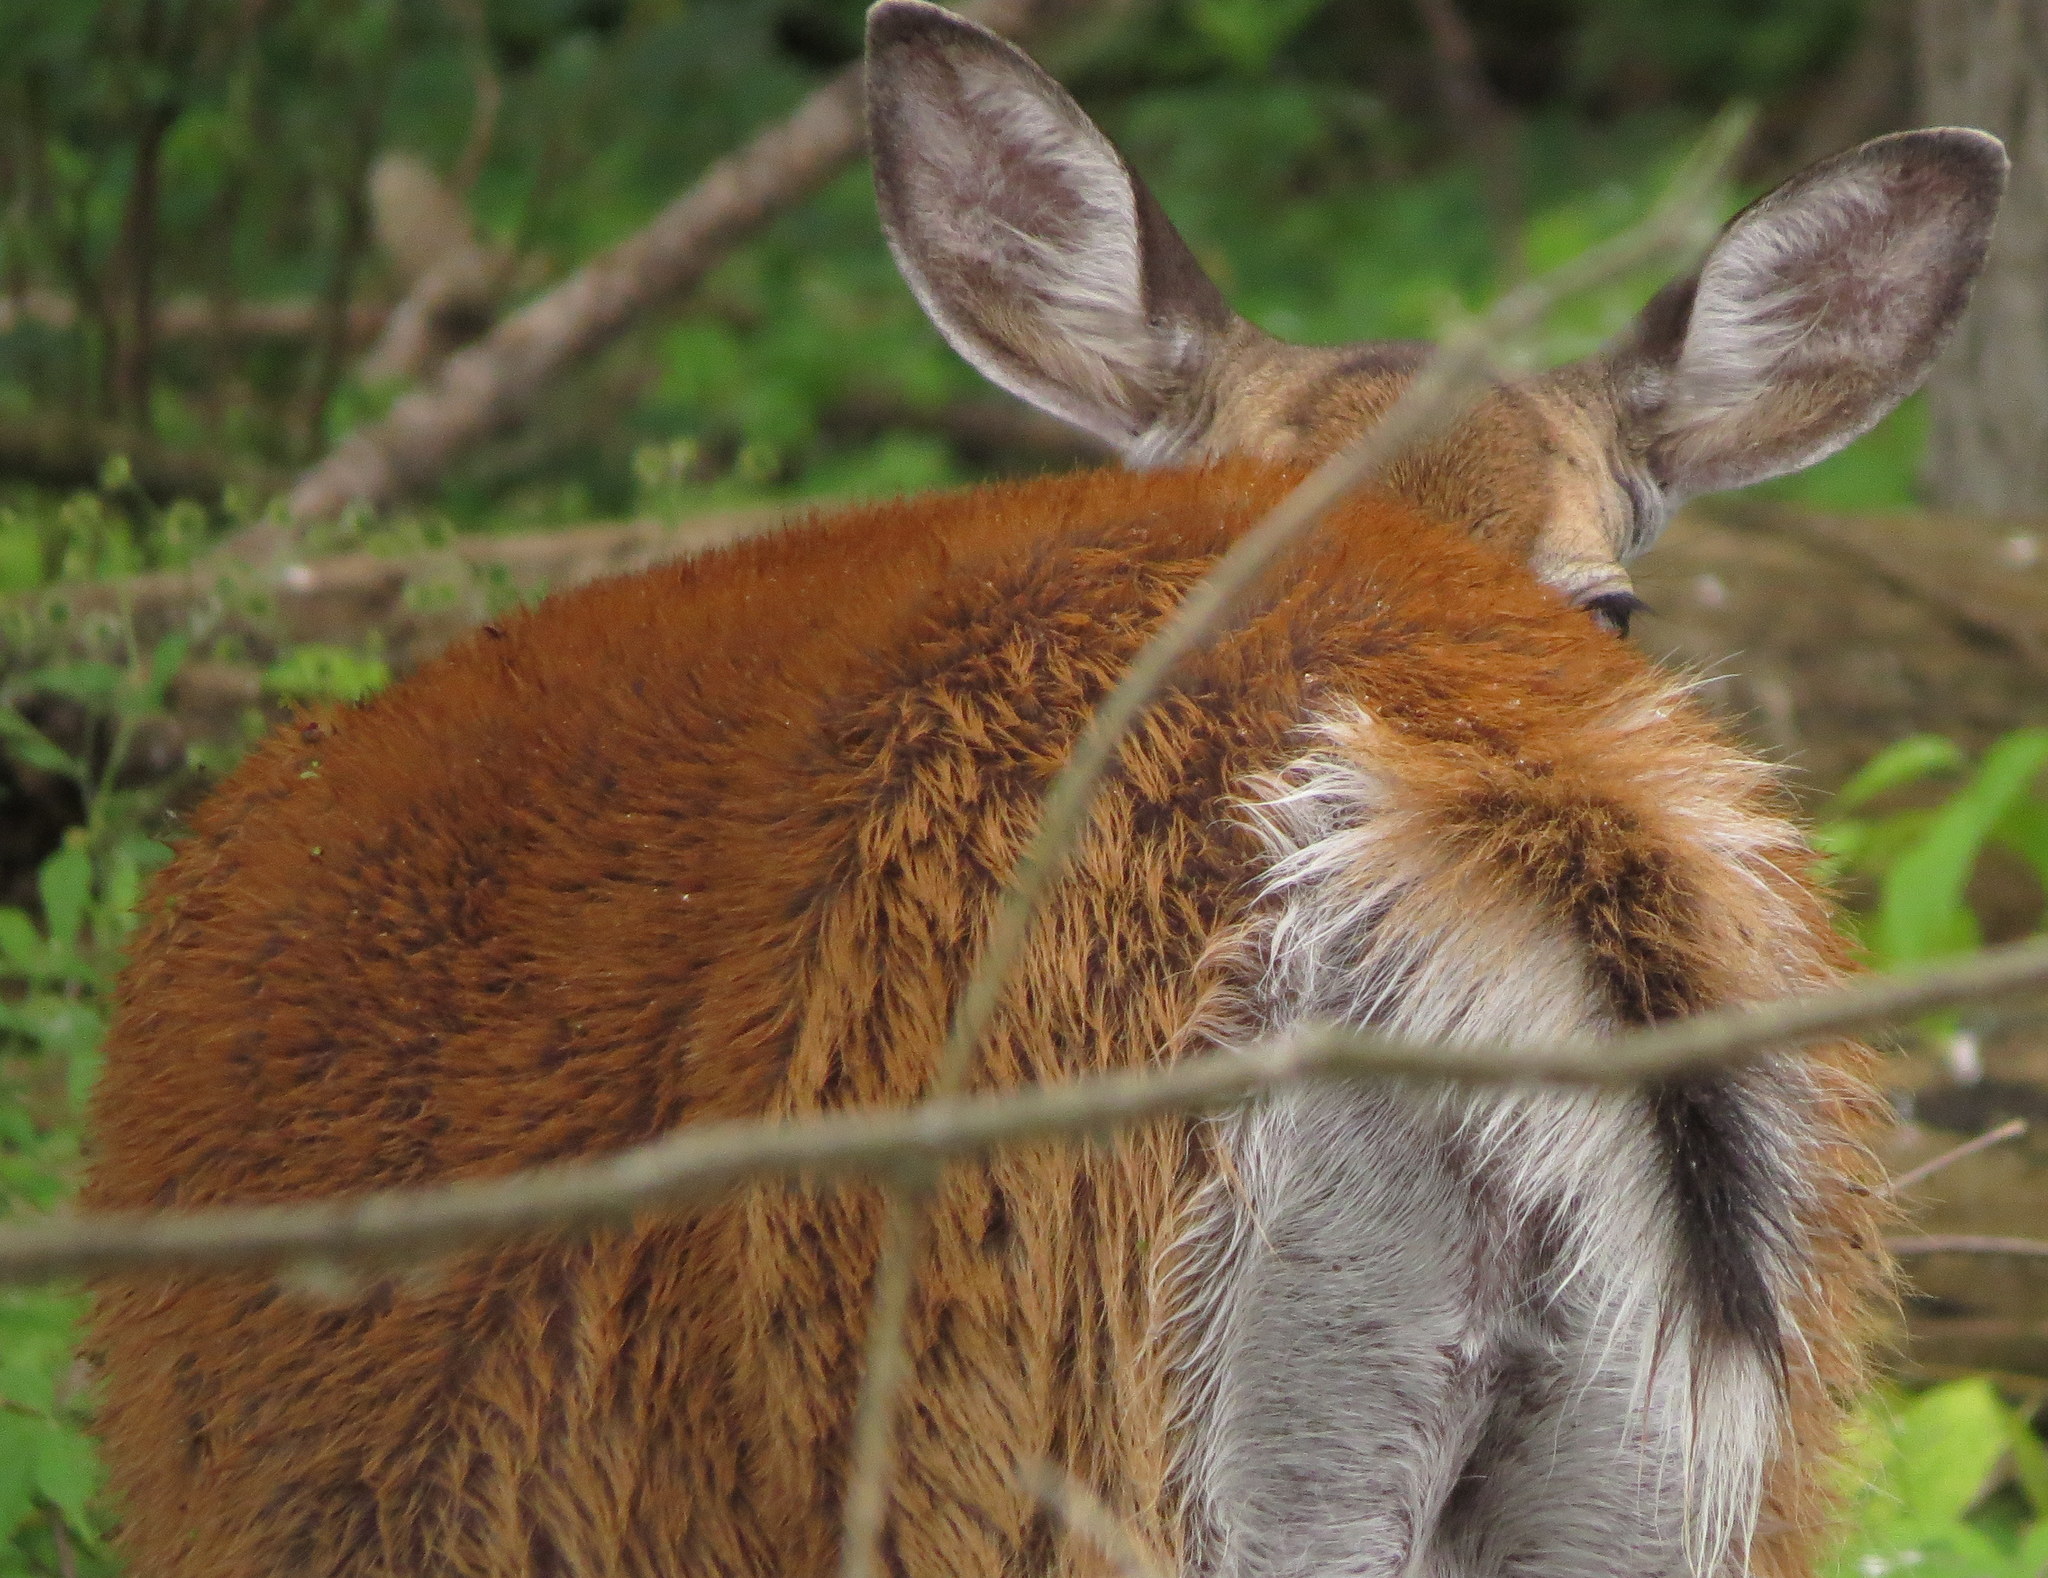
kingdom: Animalia
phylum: Chordata
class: Mammalia
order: Artiodactyla
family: Cervidae
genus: Odocoileus
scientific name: Odocoileus virginianus
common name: White-tailed deer
